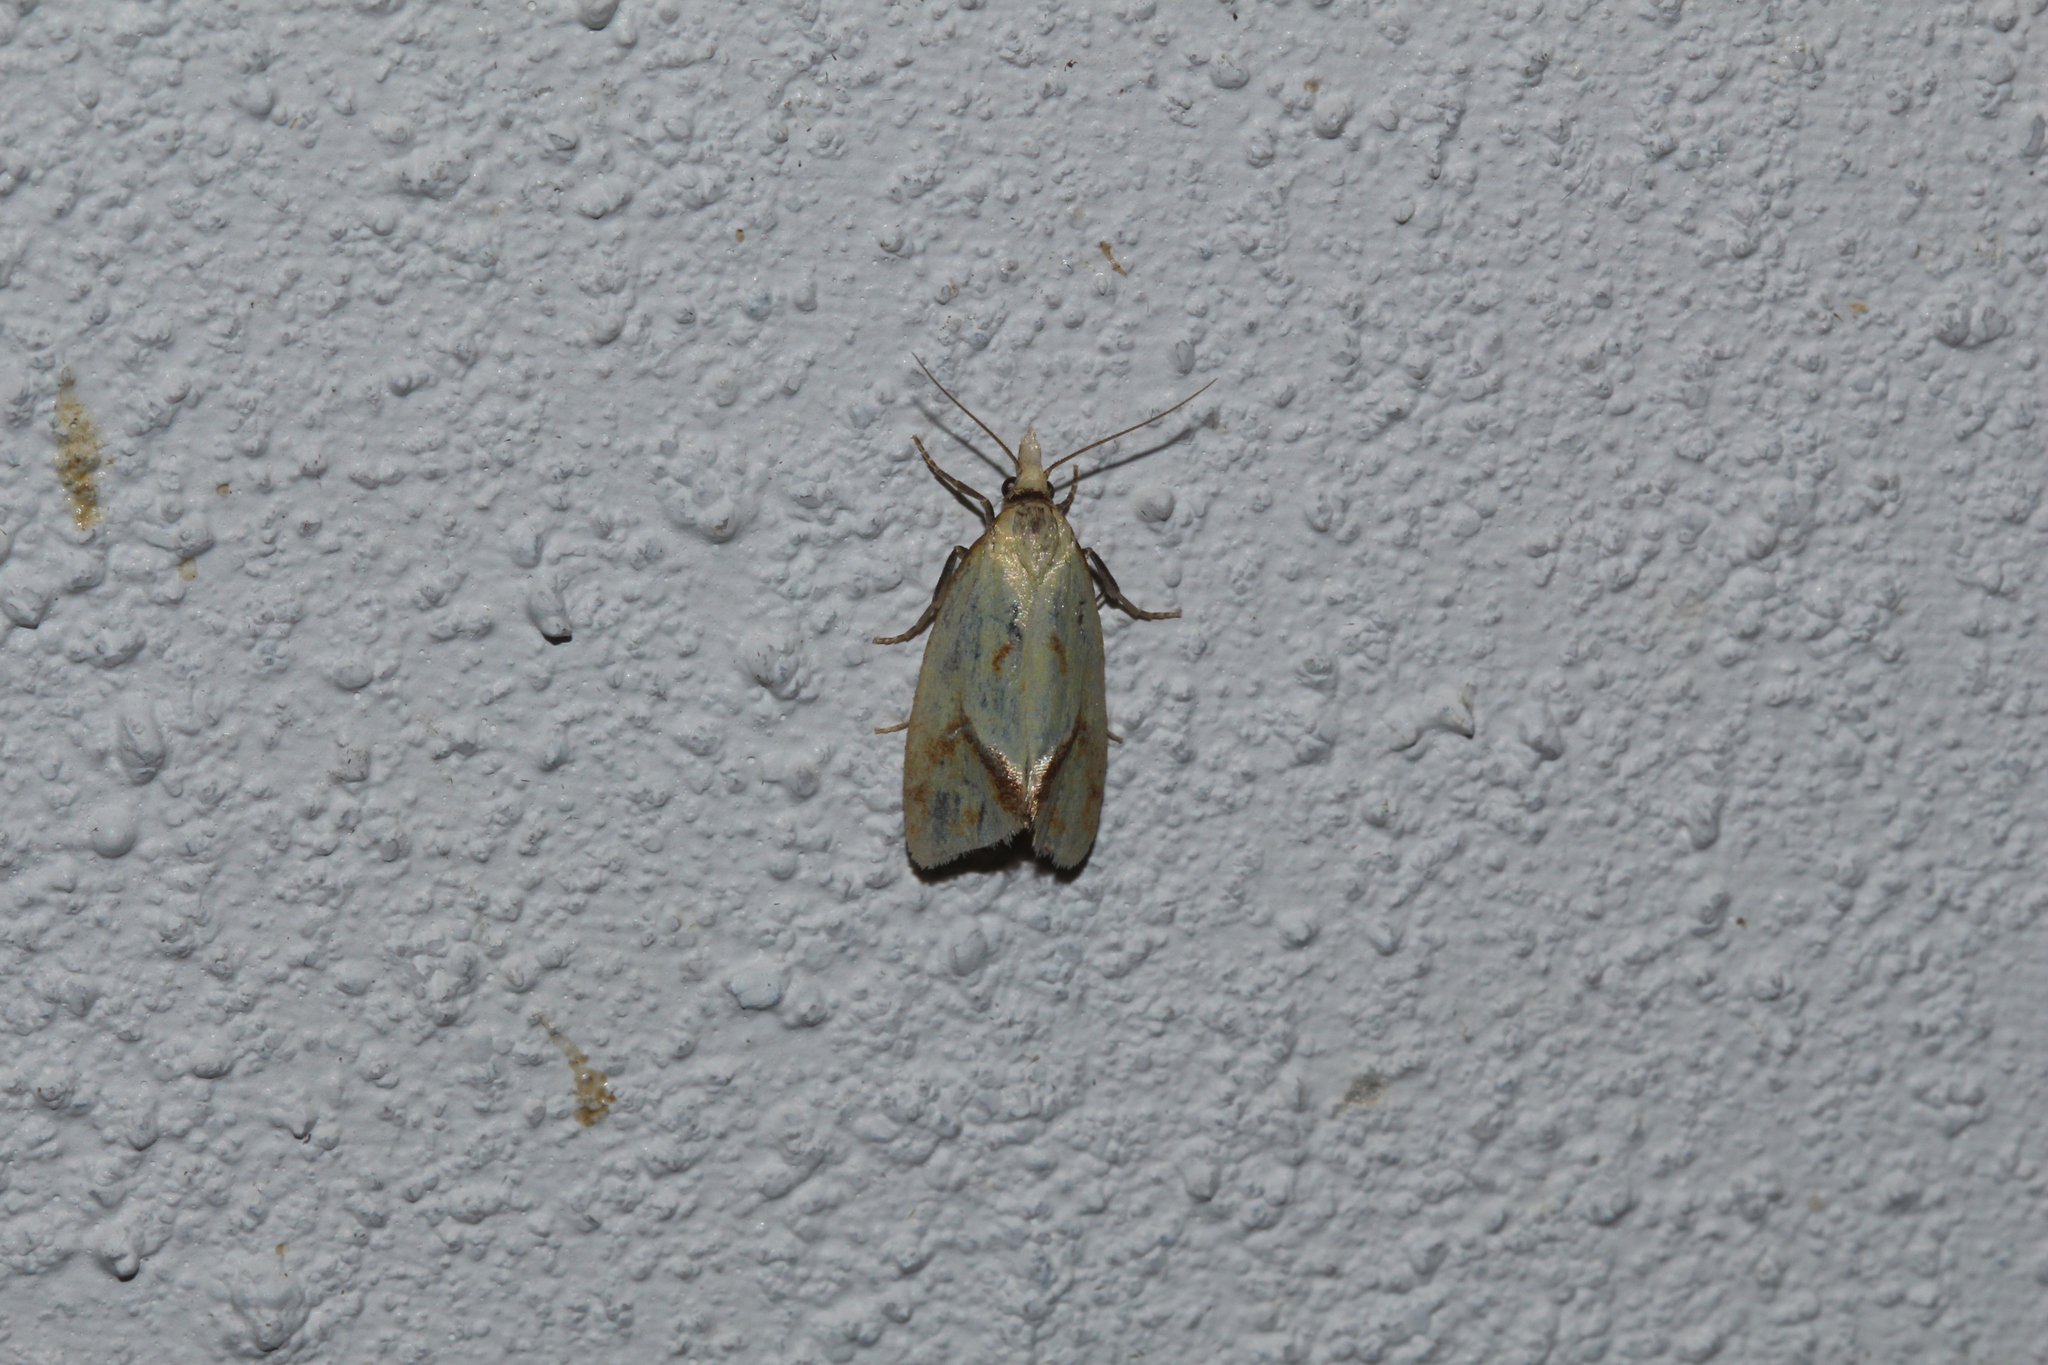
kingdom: Animalia
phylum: Arthropoda
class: Insecta
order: Lepidoptera
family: Tortricidae
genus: Agapeta
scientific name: Agapeta hamana
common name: Common yellow conch
